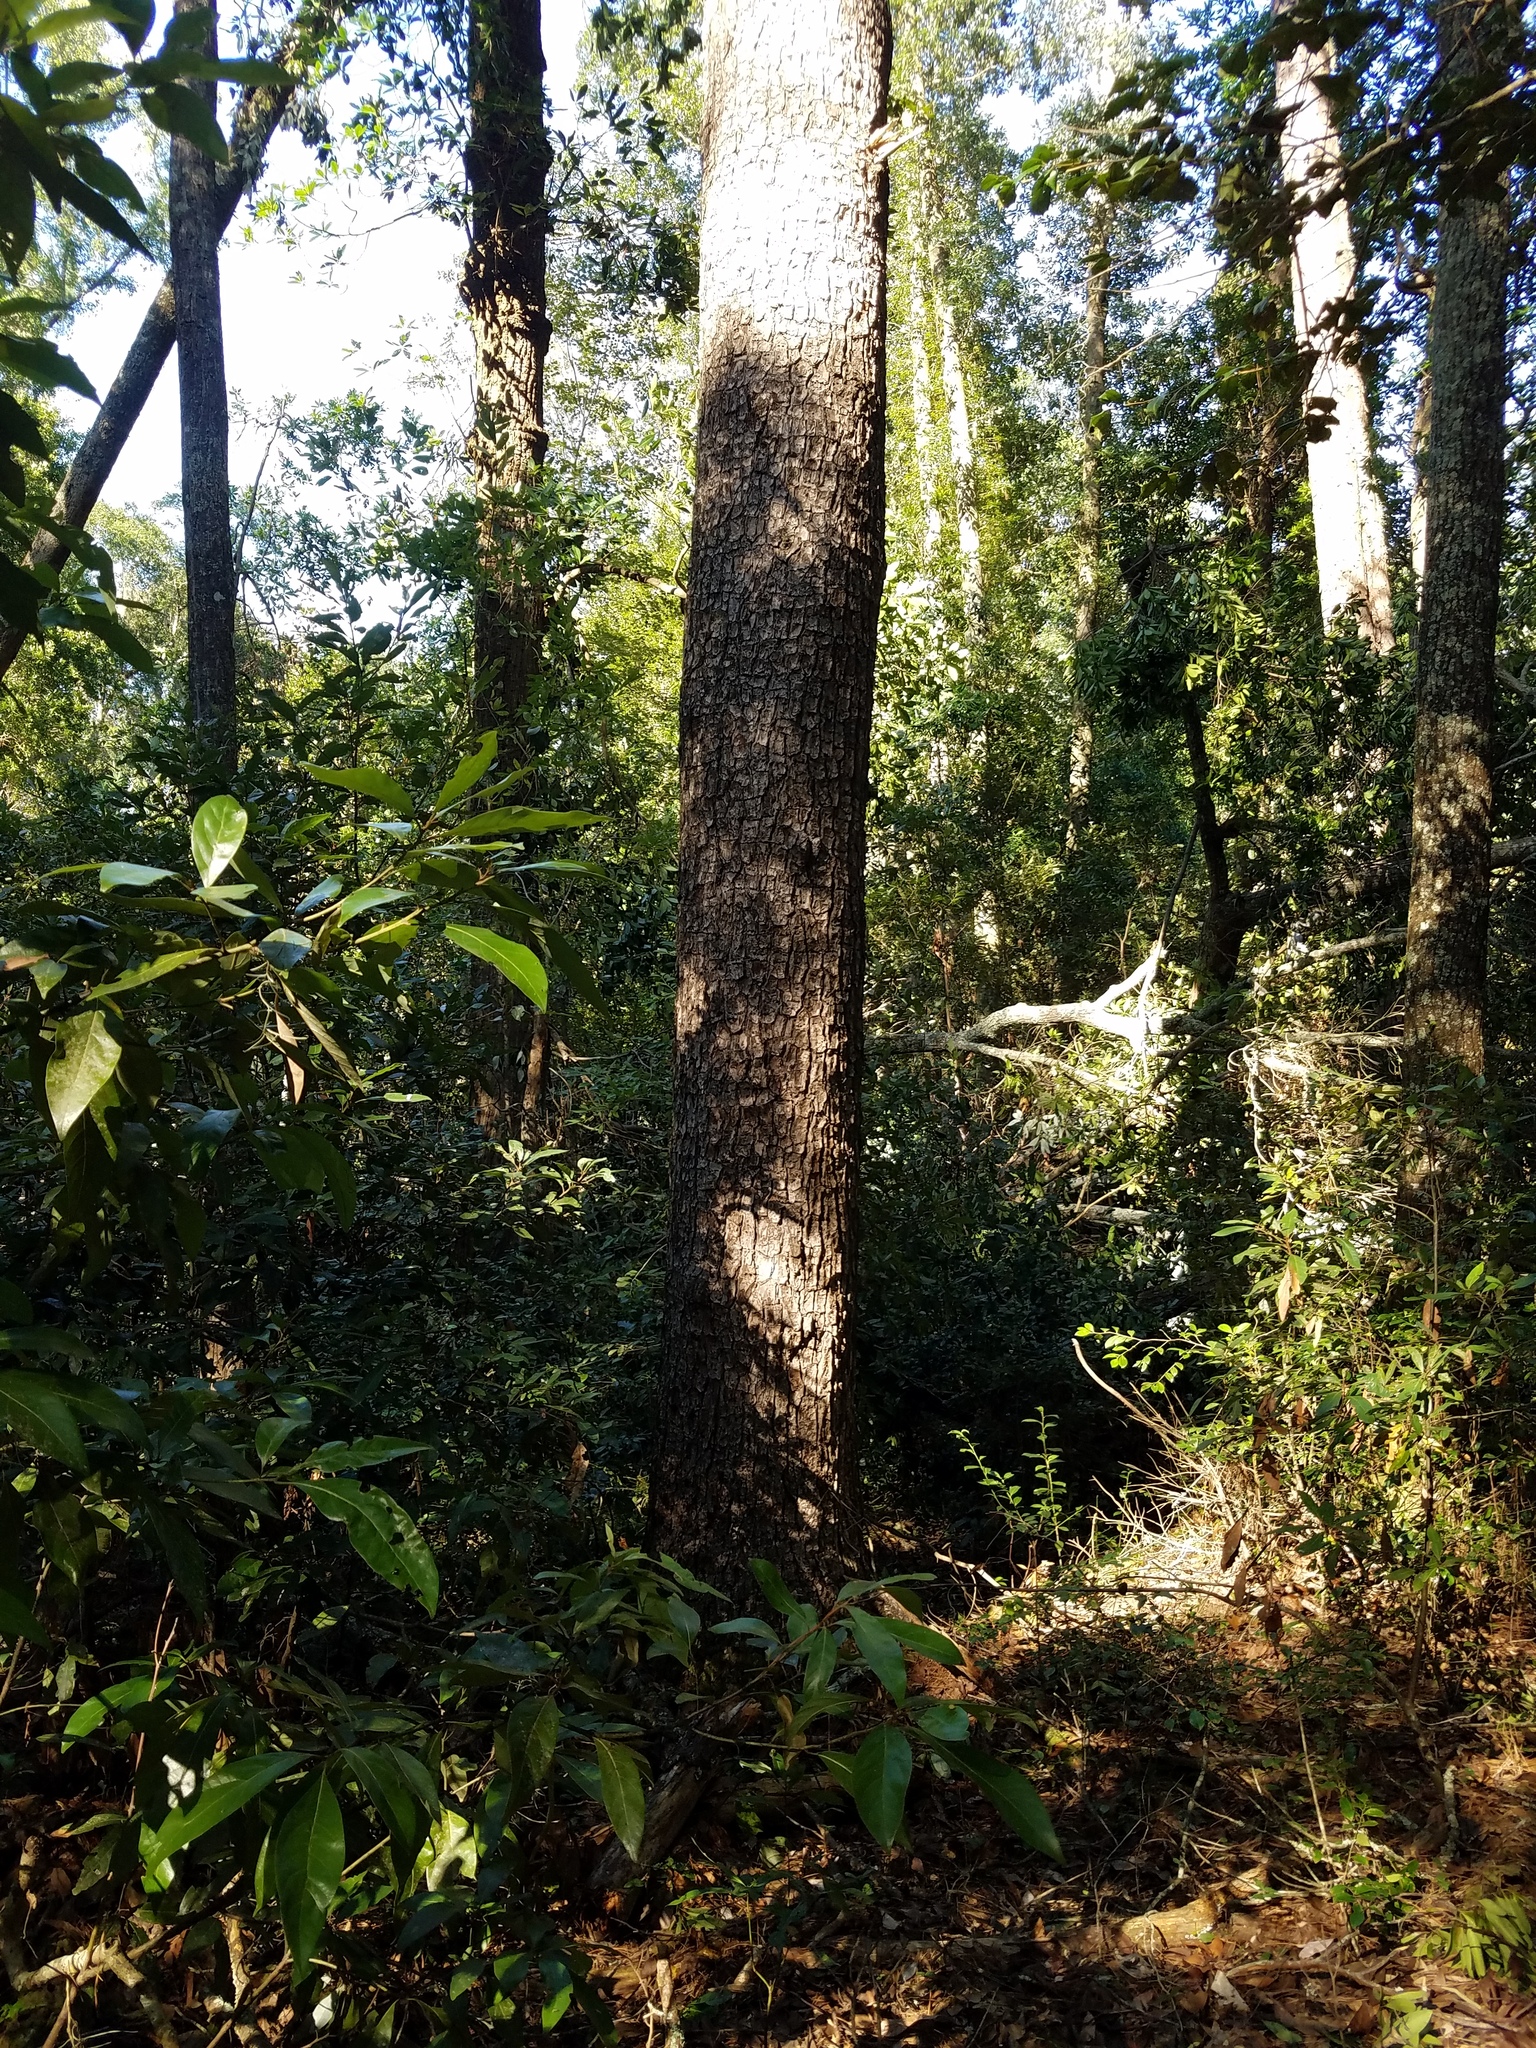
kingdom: Plantae
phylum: Tracheophyta
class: Pinopsida
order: Pinales
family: Pinaceae
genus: Pinus
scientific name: Pinus glabra
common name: Spruce pine
